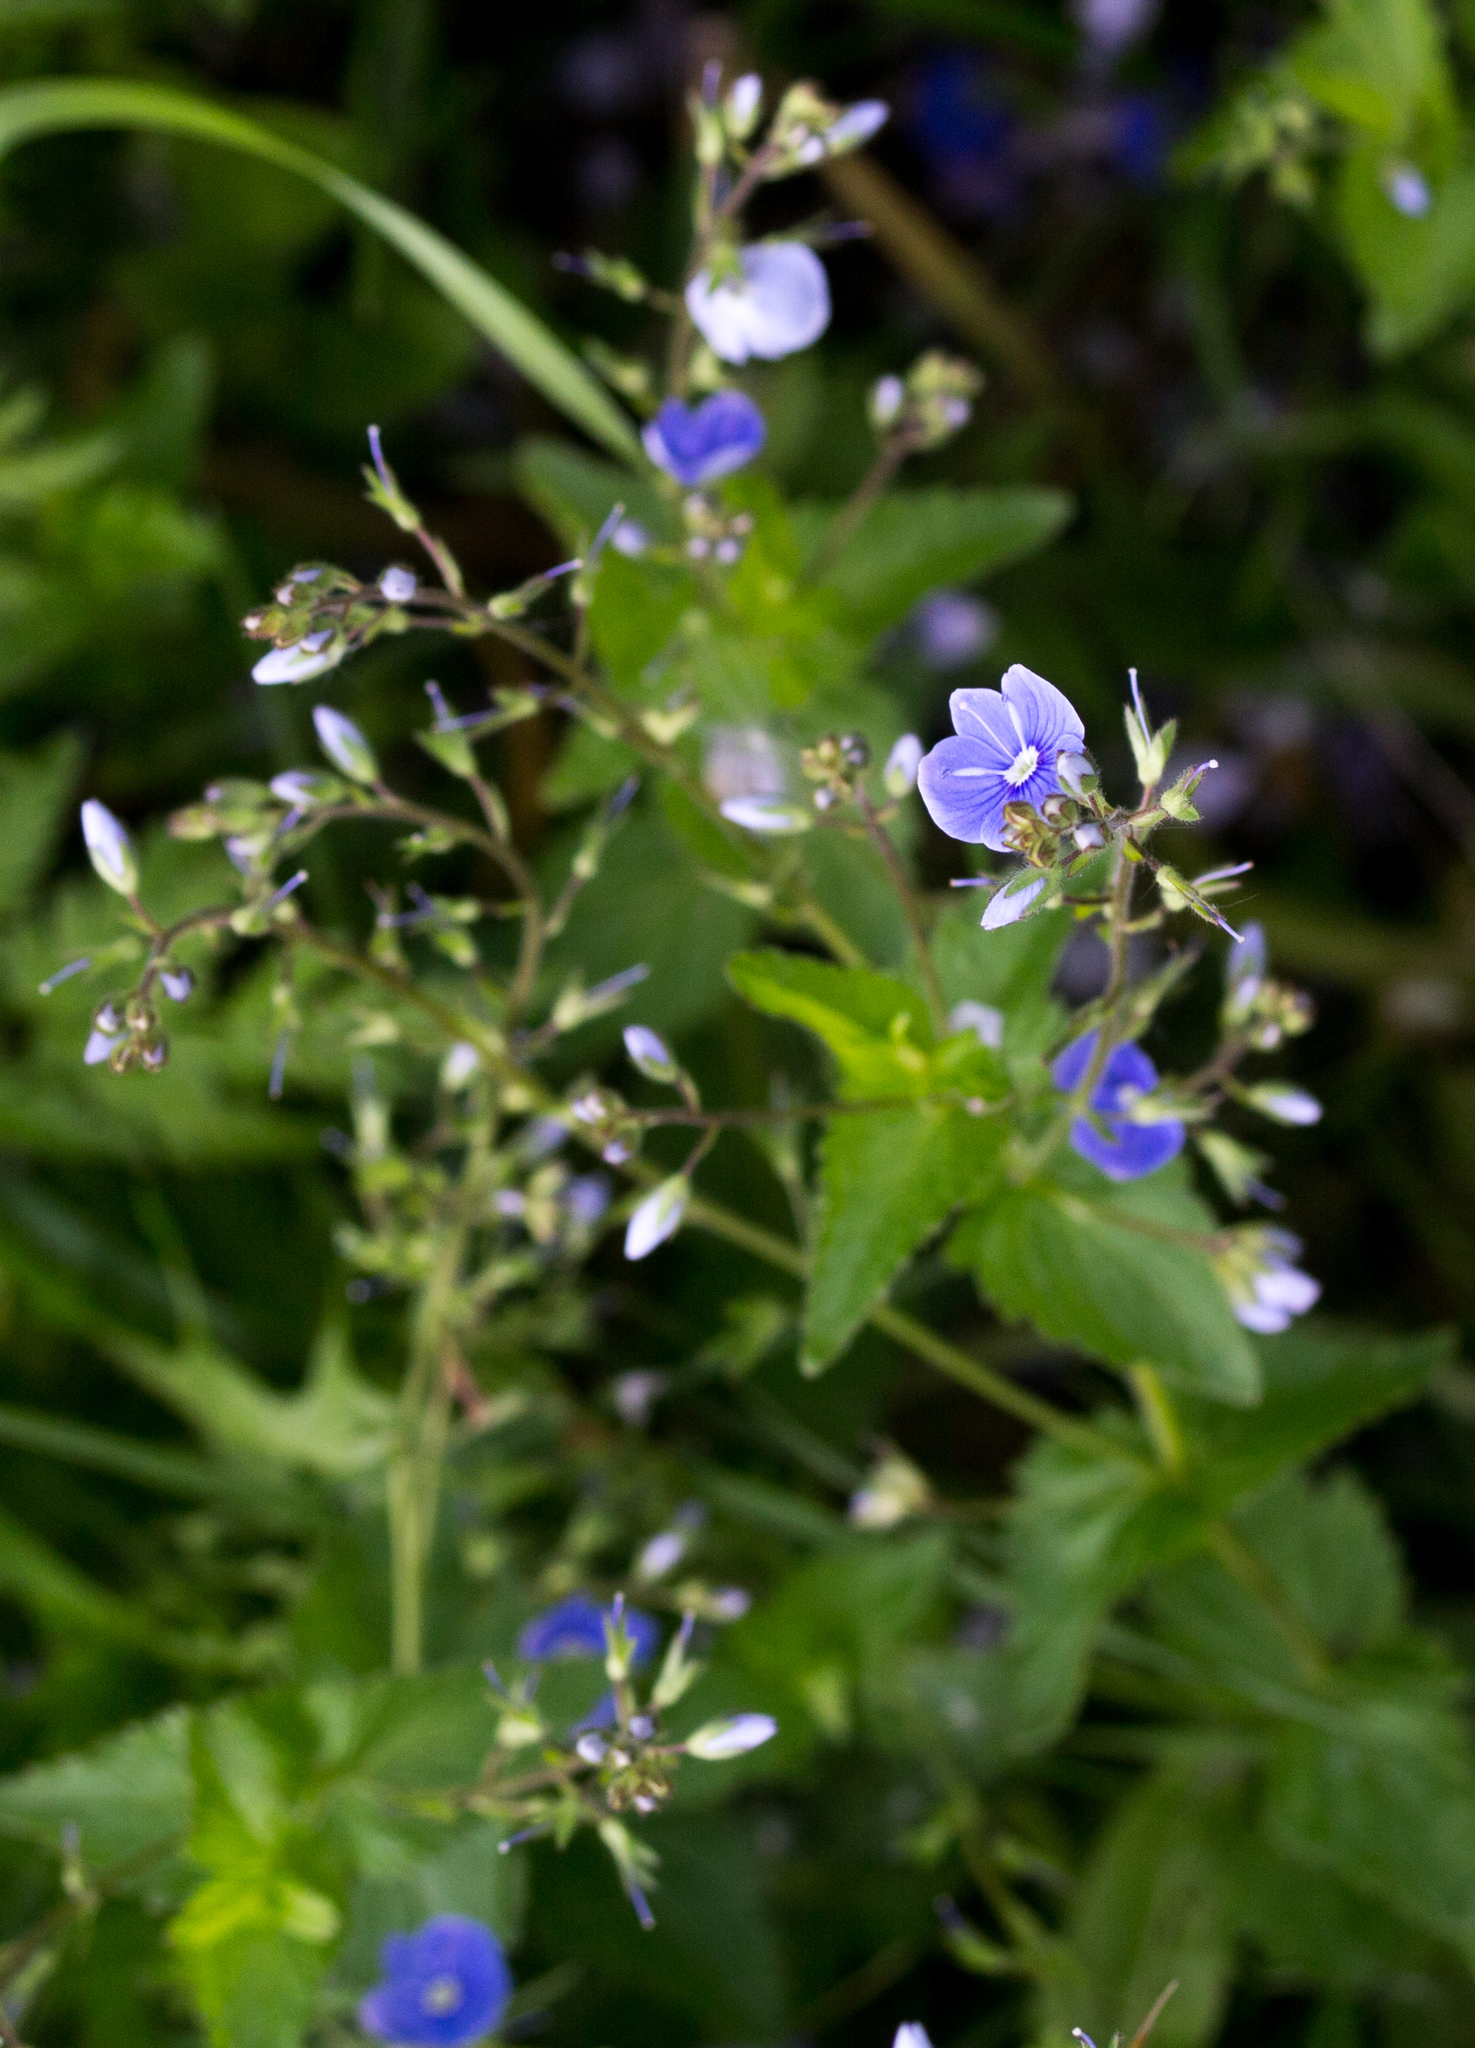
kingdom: Plantae
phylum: Tracheophyta
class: Magnoliopsida
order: Lamiales
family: Plantaginaceae
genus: Veronica
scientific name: Veronica chamaedrys
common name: Germander speedwell
